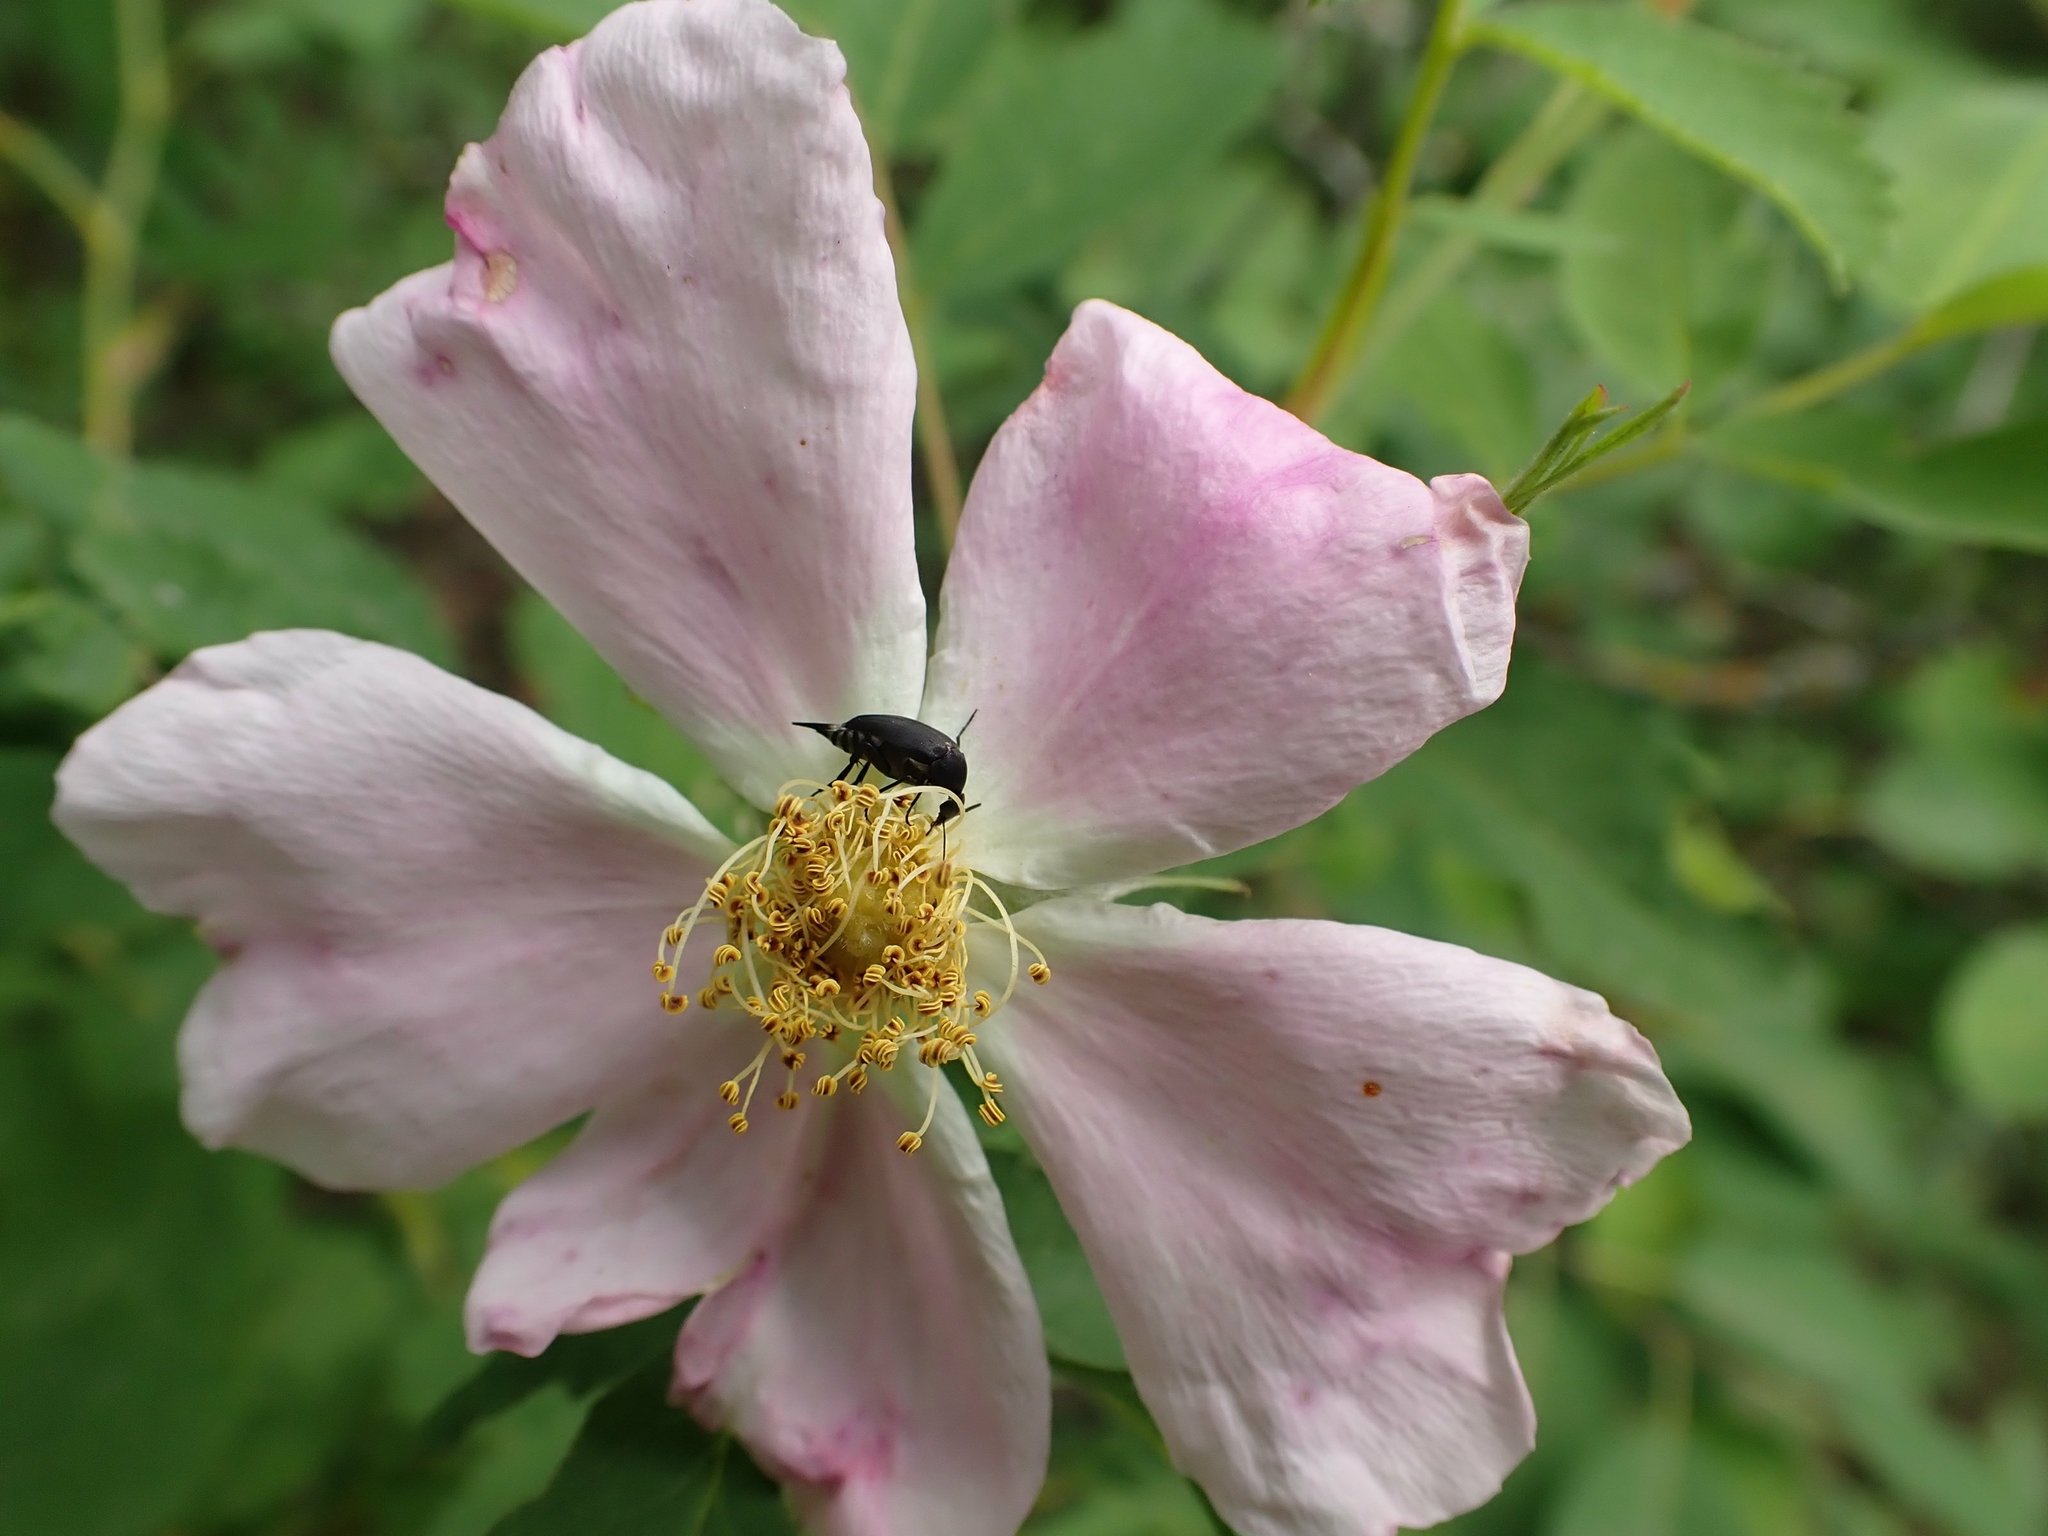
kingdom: Plantae
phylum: Tracheophyta
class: Magnoliopsida
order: Rosales
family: Rosaceae
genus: Rosa
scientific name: Rosa woodsii
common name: Woods's rose
